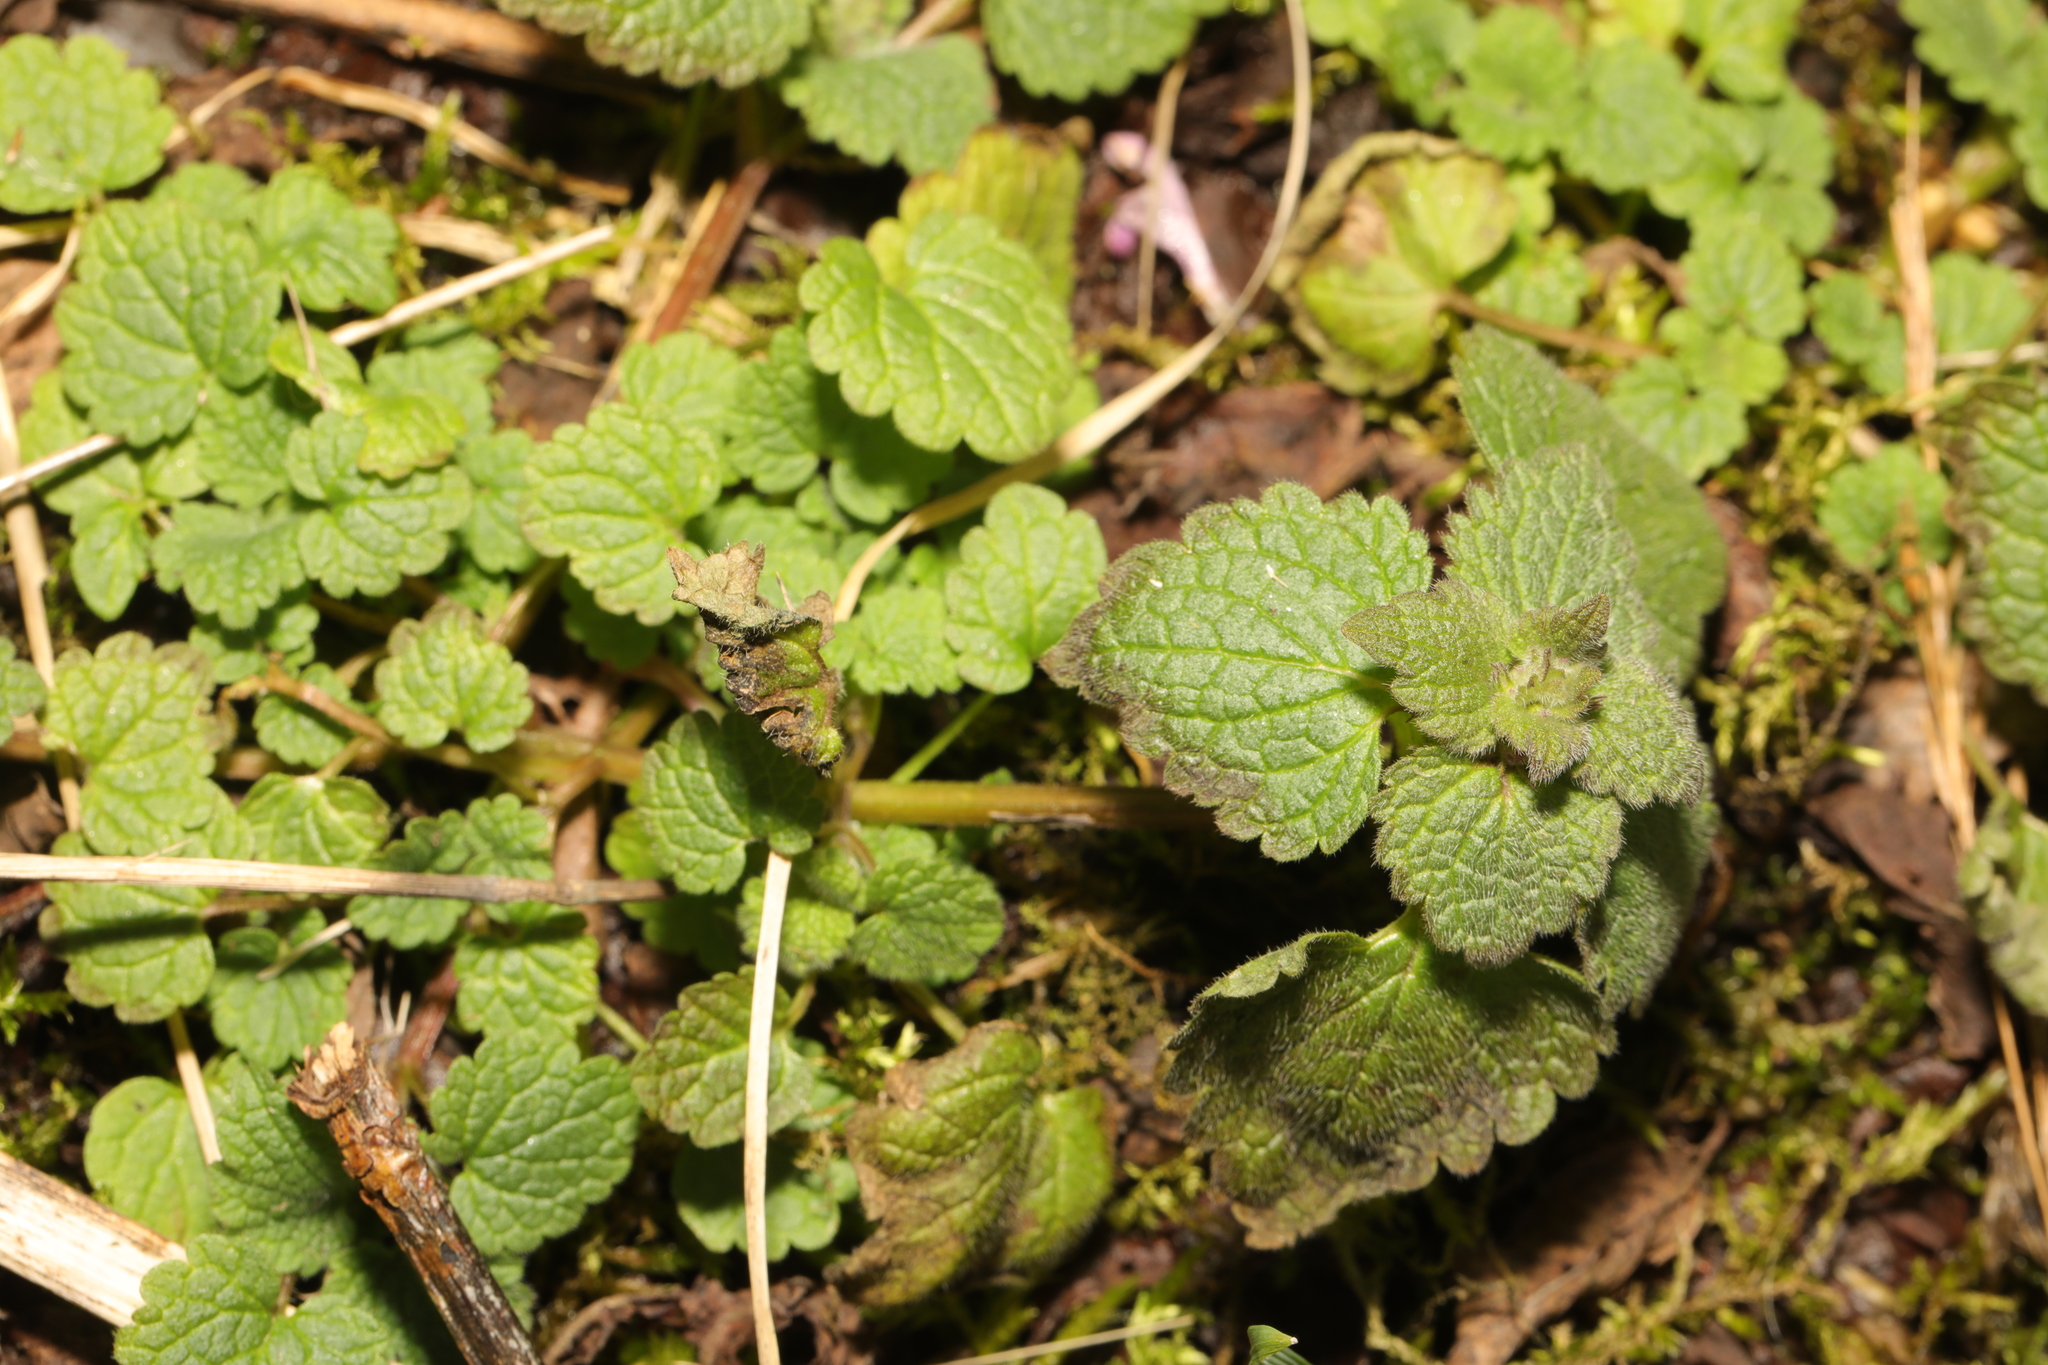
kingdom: Plantae
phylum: Tracheophyta
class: Magnoliopsida
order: Lamiales
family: Lamiaceae
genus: Lamium
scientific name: Lamium purpureum
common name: Red dead-nettle
